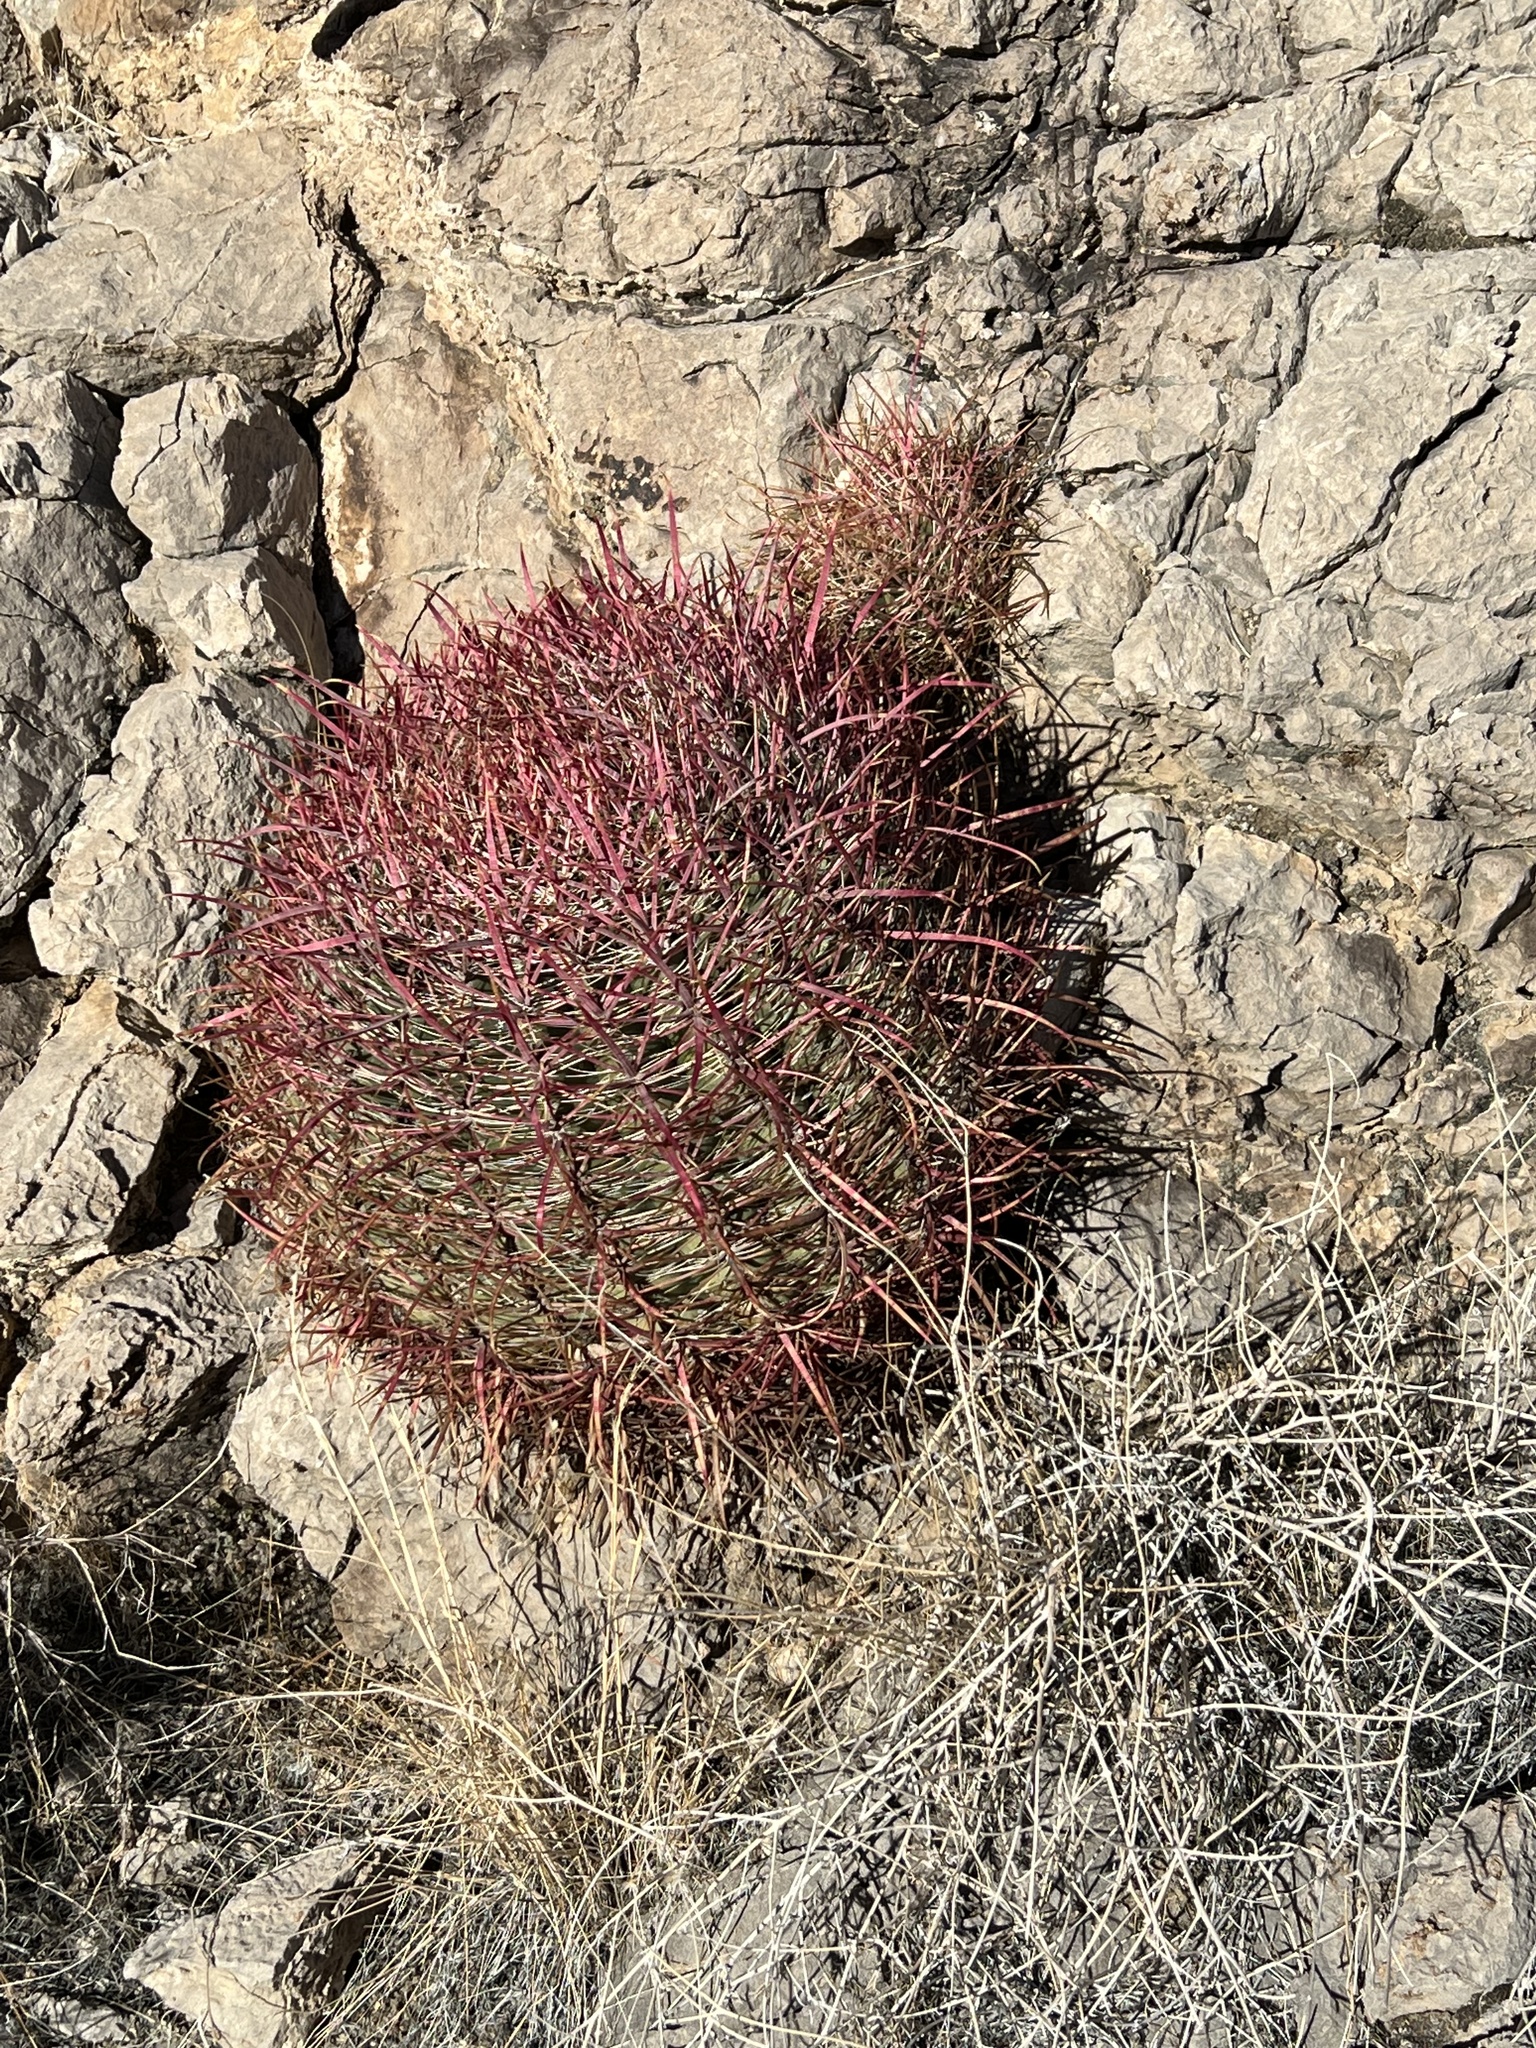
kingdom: Plantae
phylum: Tracheophyta
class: Magnoliopsida
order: Caryophyllales
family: Cactaceae
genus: Ferocactus
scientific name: Ferocactus cylindraceus
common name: California barrel cactus
